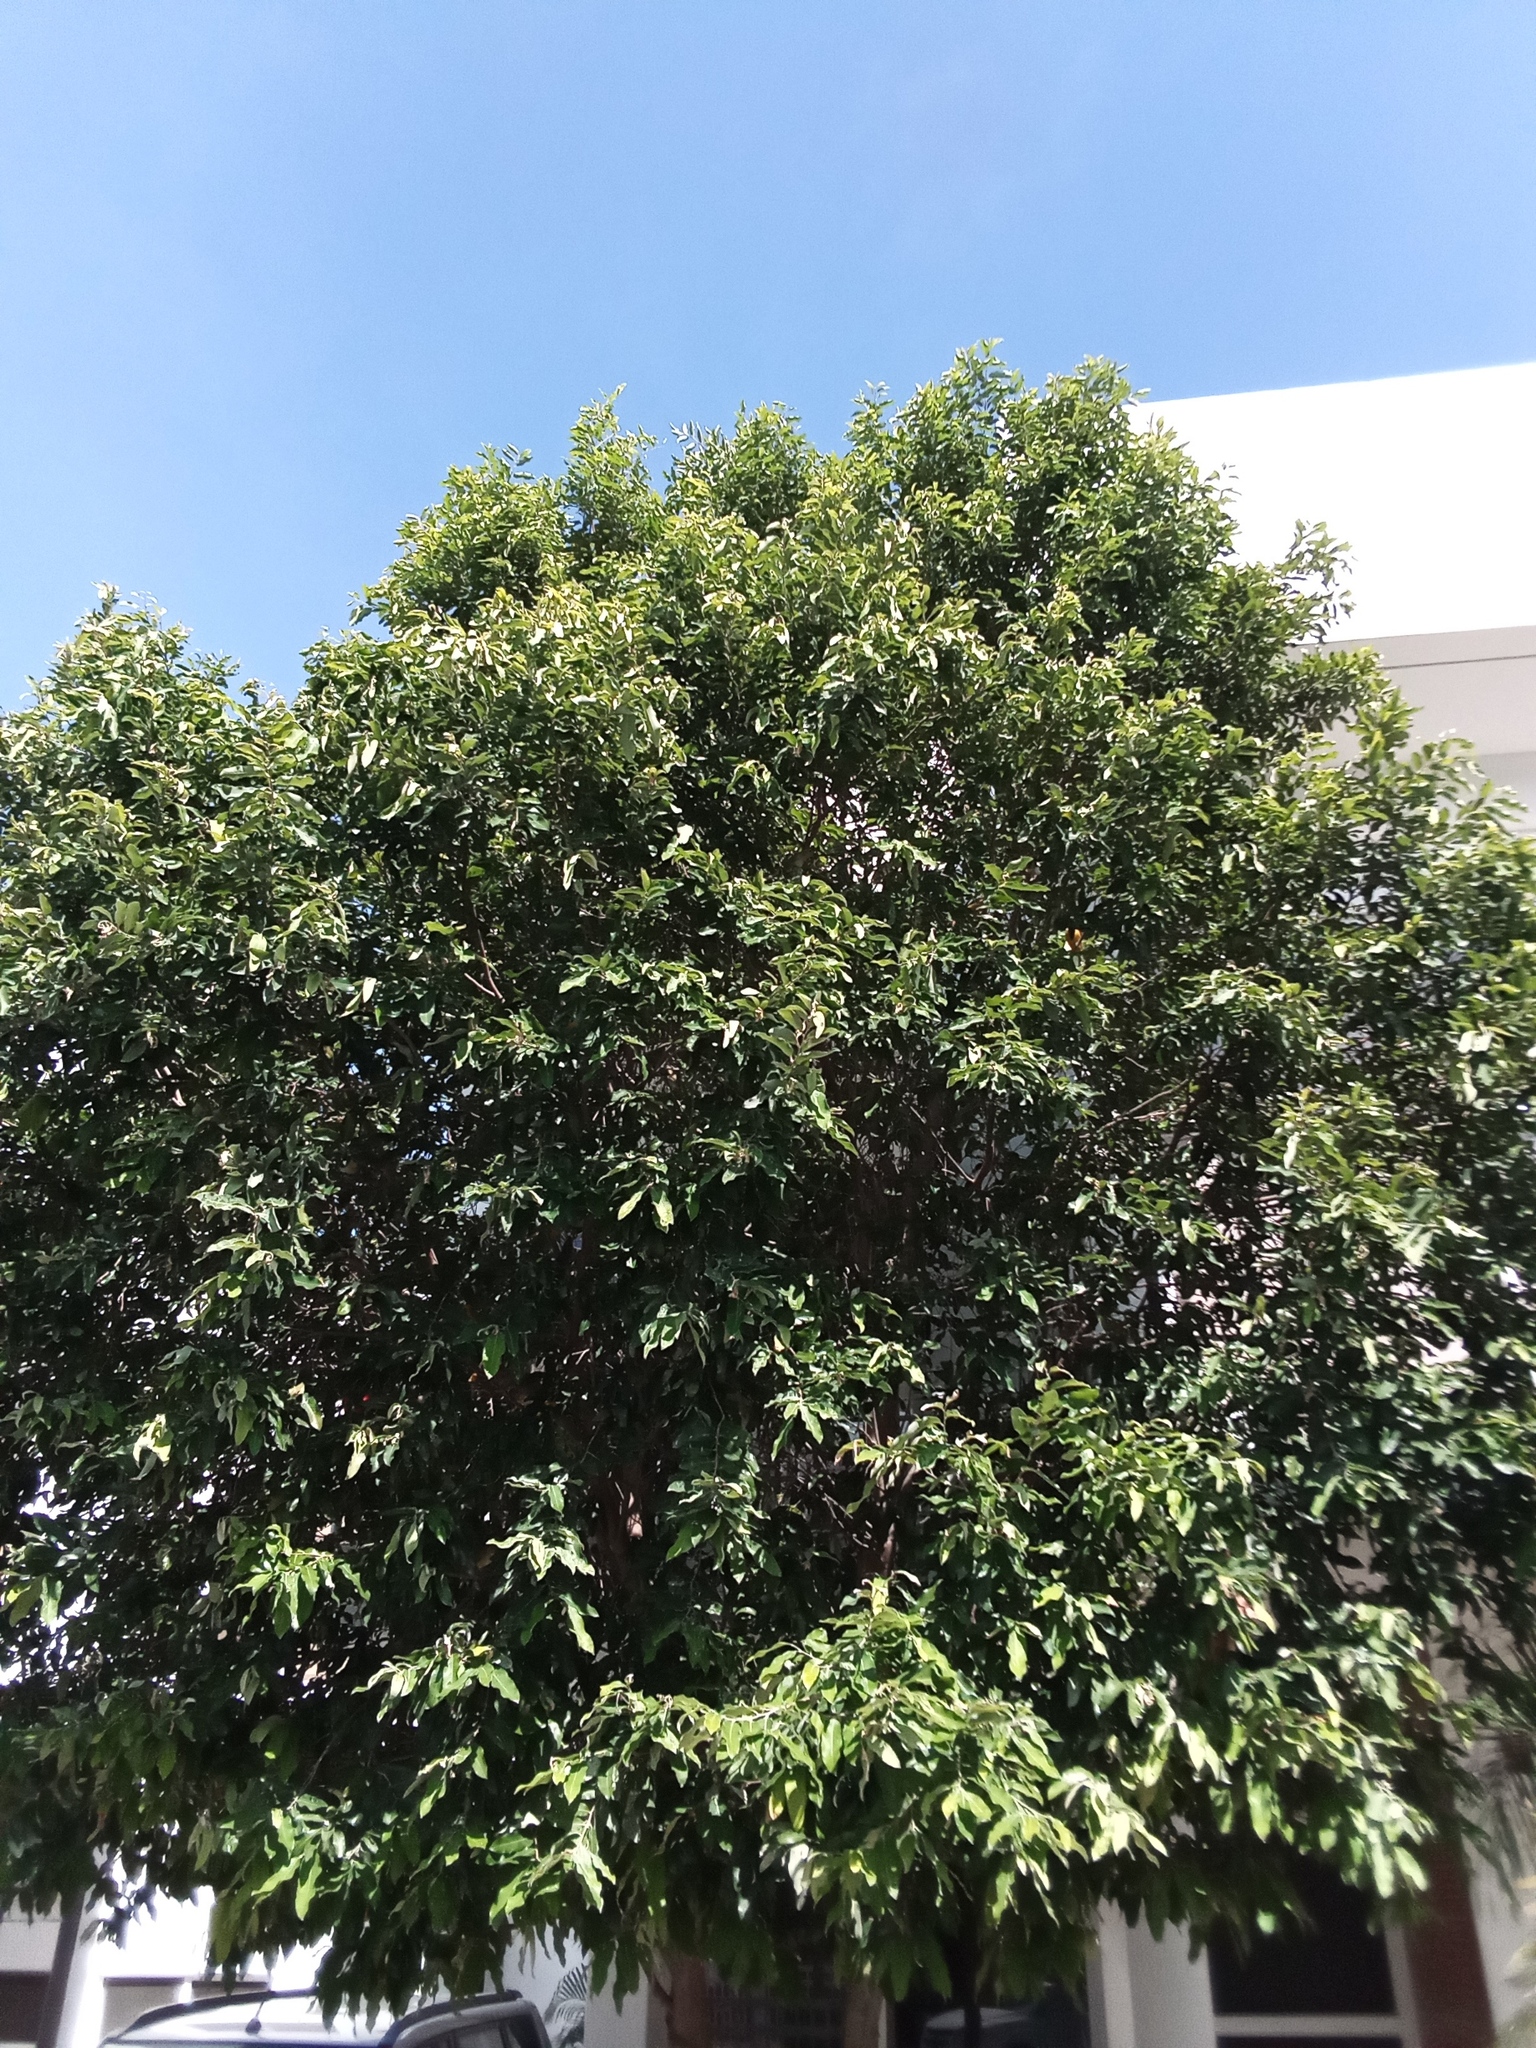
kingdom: Plantae
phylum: Tracheophyta
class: Magnoliopsida
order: Malpighiales
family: Chrysobalanaceae
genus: Moquilea
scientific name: Moquilea tomentosa
